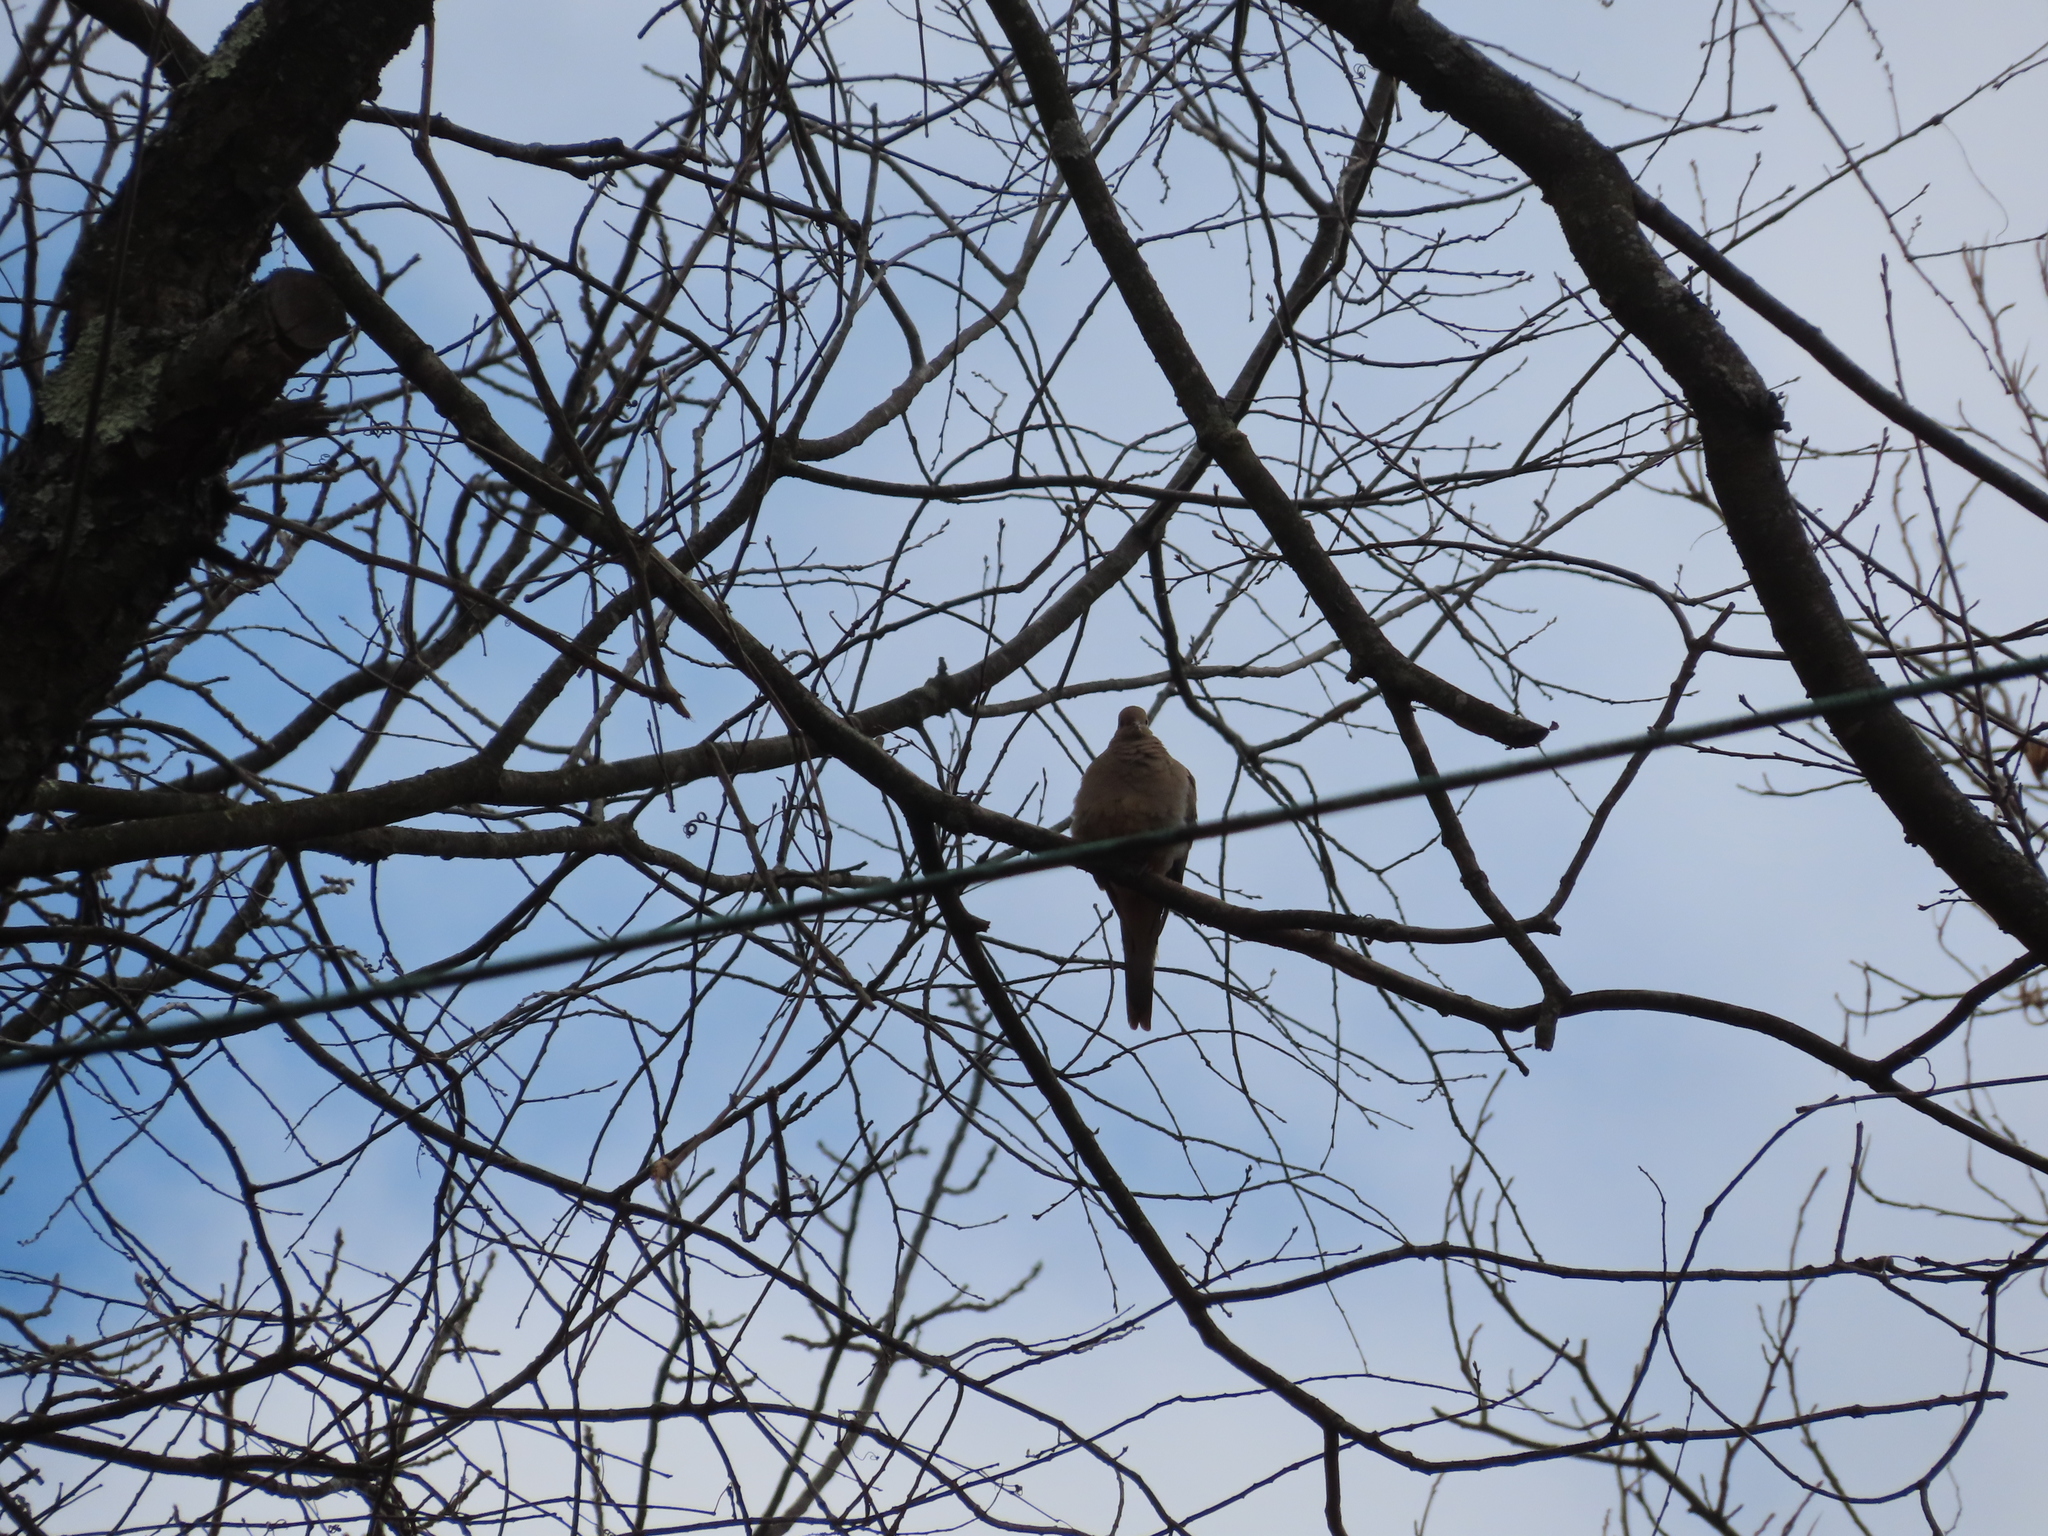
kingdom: Animalia
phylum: Chordata
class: Aves
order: Columbiformes
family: Columbidae
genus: Zenaida
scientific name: Zenaida macroura
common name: Mourning dove
